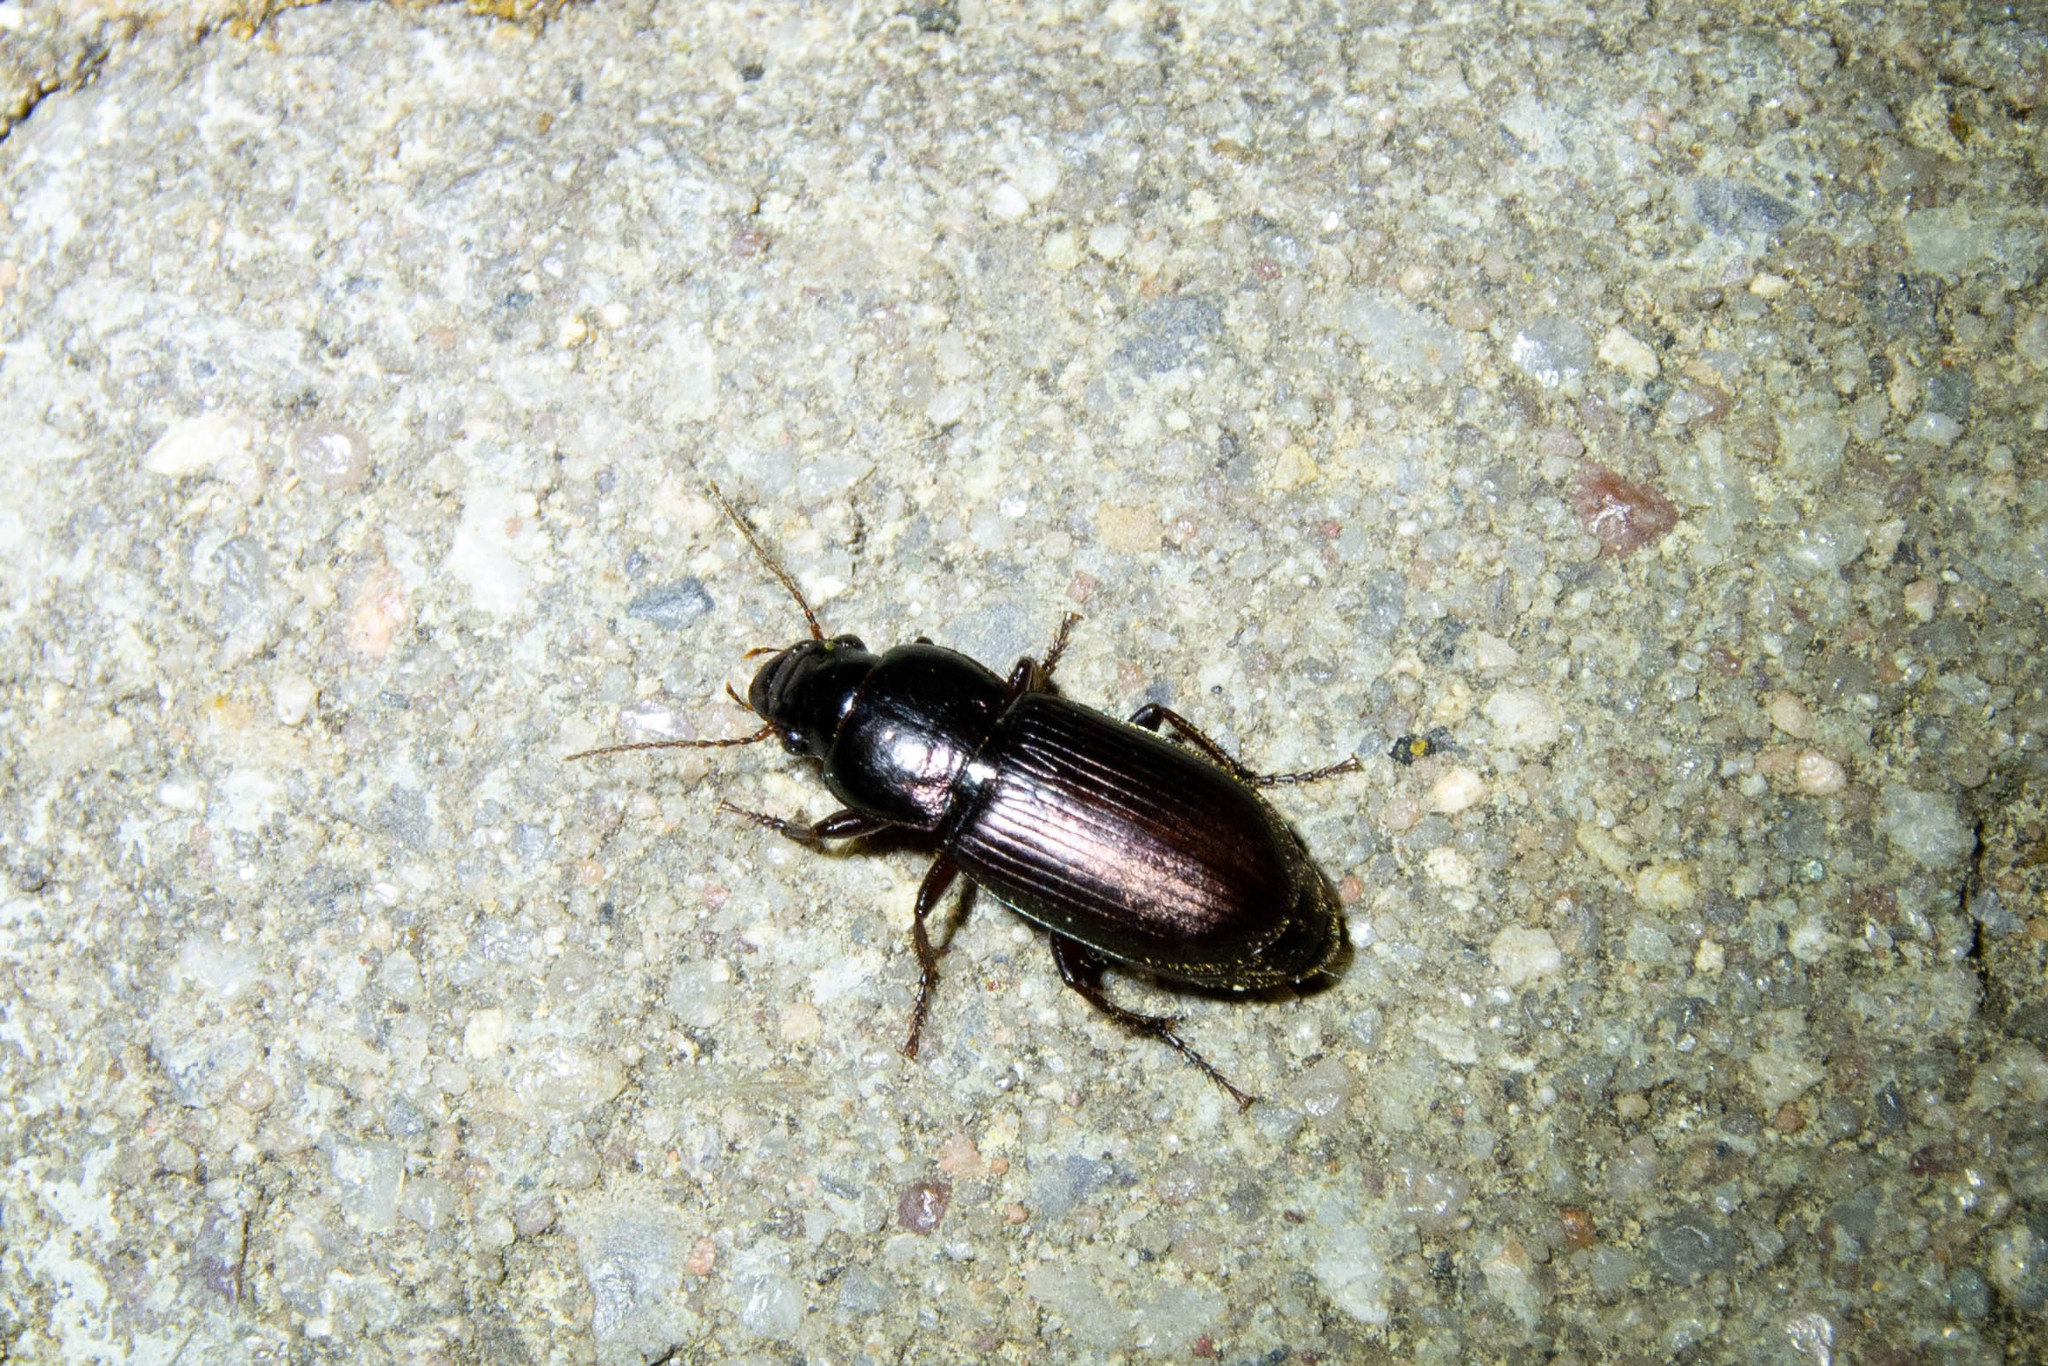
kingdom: Animalia
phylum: Arthropoda
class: Insecta
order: Coleoptera
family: Carabidae
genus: Harpalus
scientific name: Harpalus affinis
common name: Polychrome harp ground beetle
